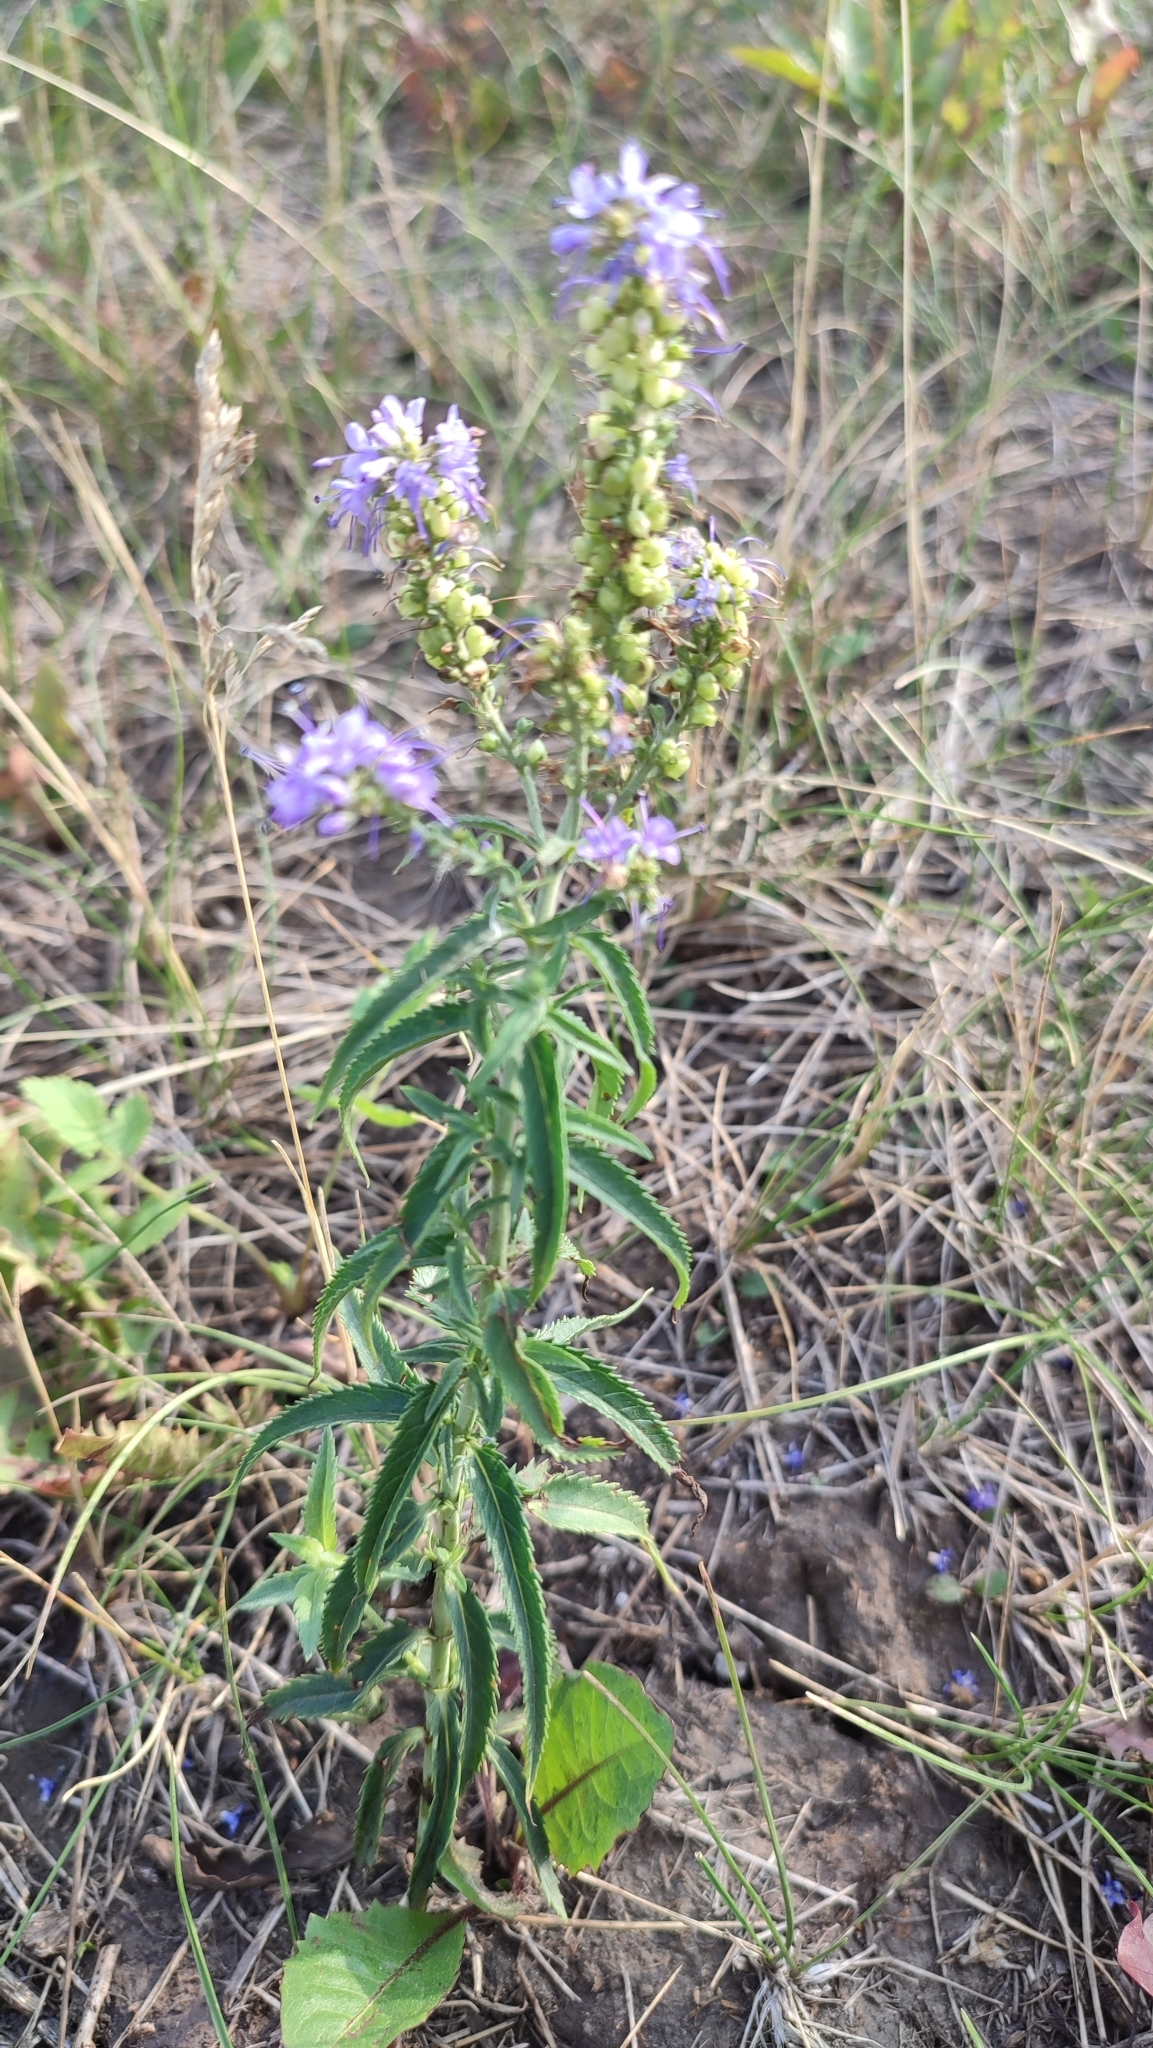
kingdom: Plantae
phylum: Tracheophyta
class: Magnoliopsida
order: Lamiales
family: Plantaginaceae
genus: Veronica
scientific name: Veronica longifolia
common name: Garden speedwell
